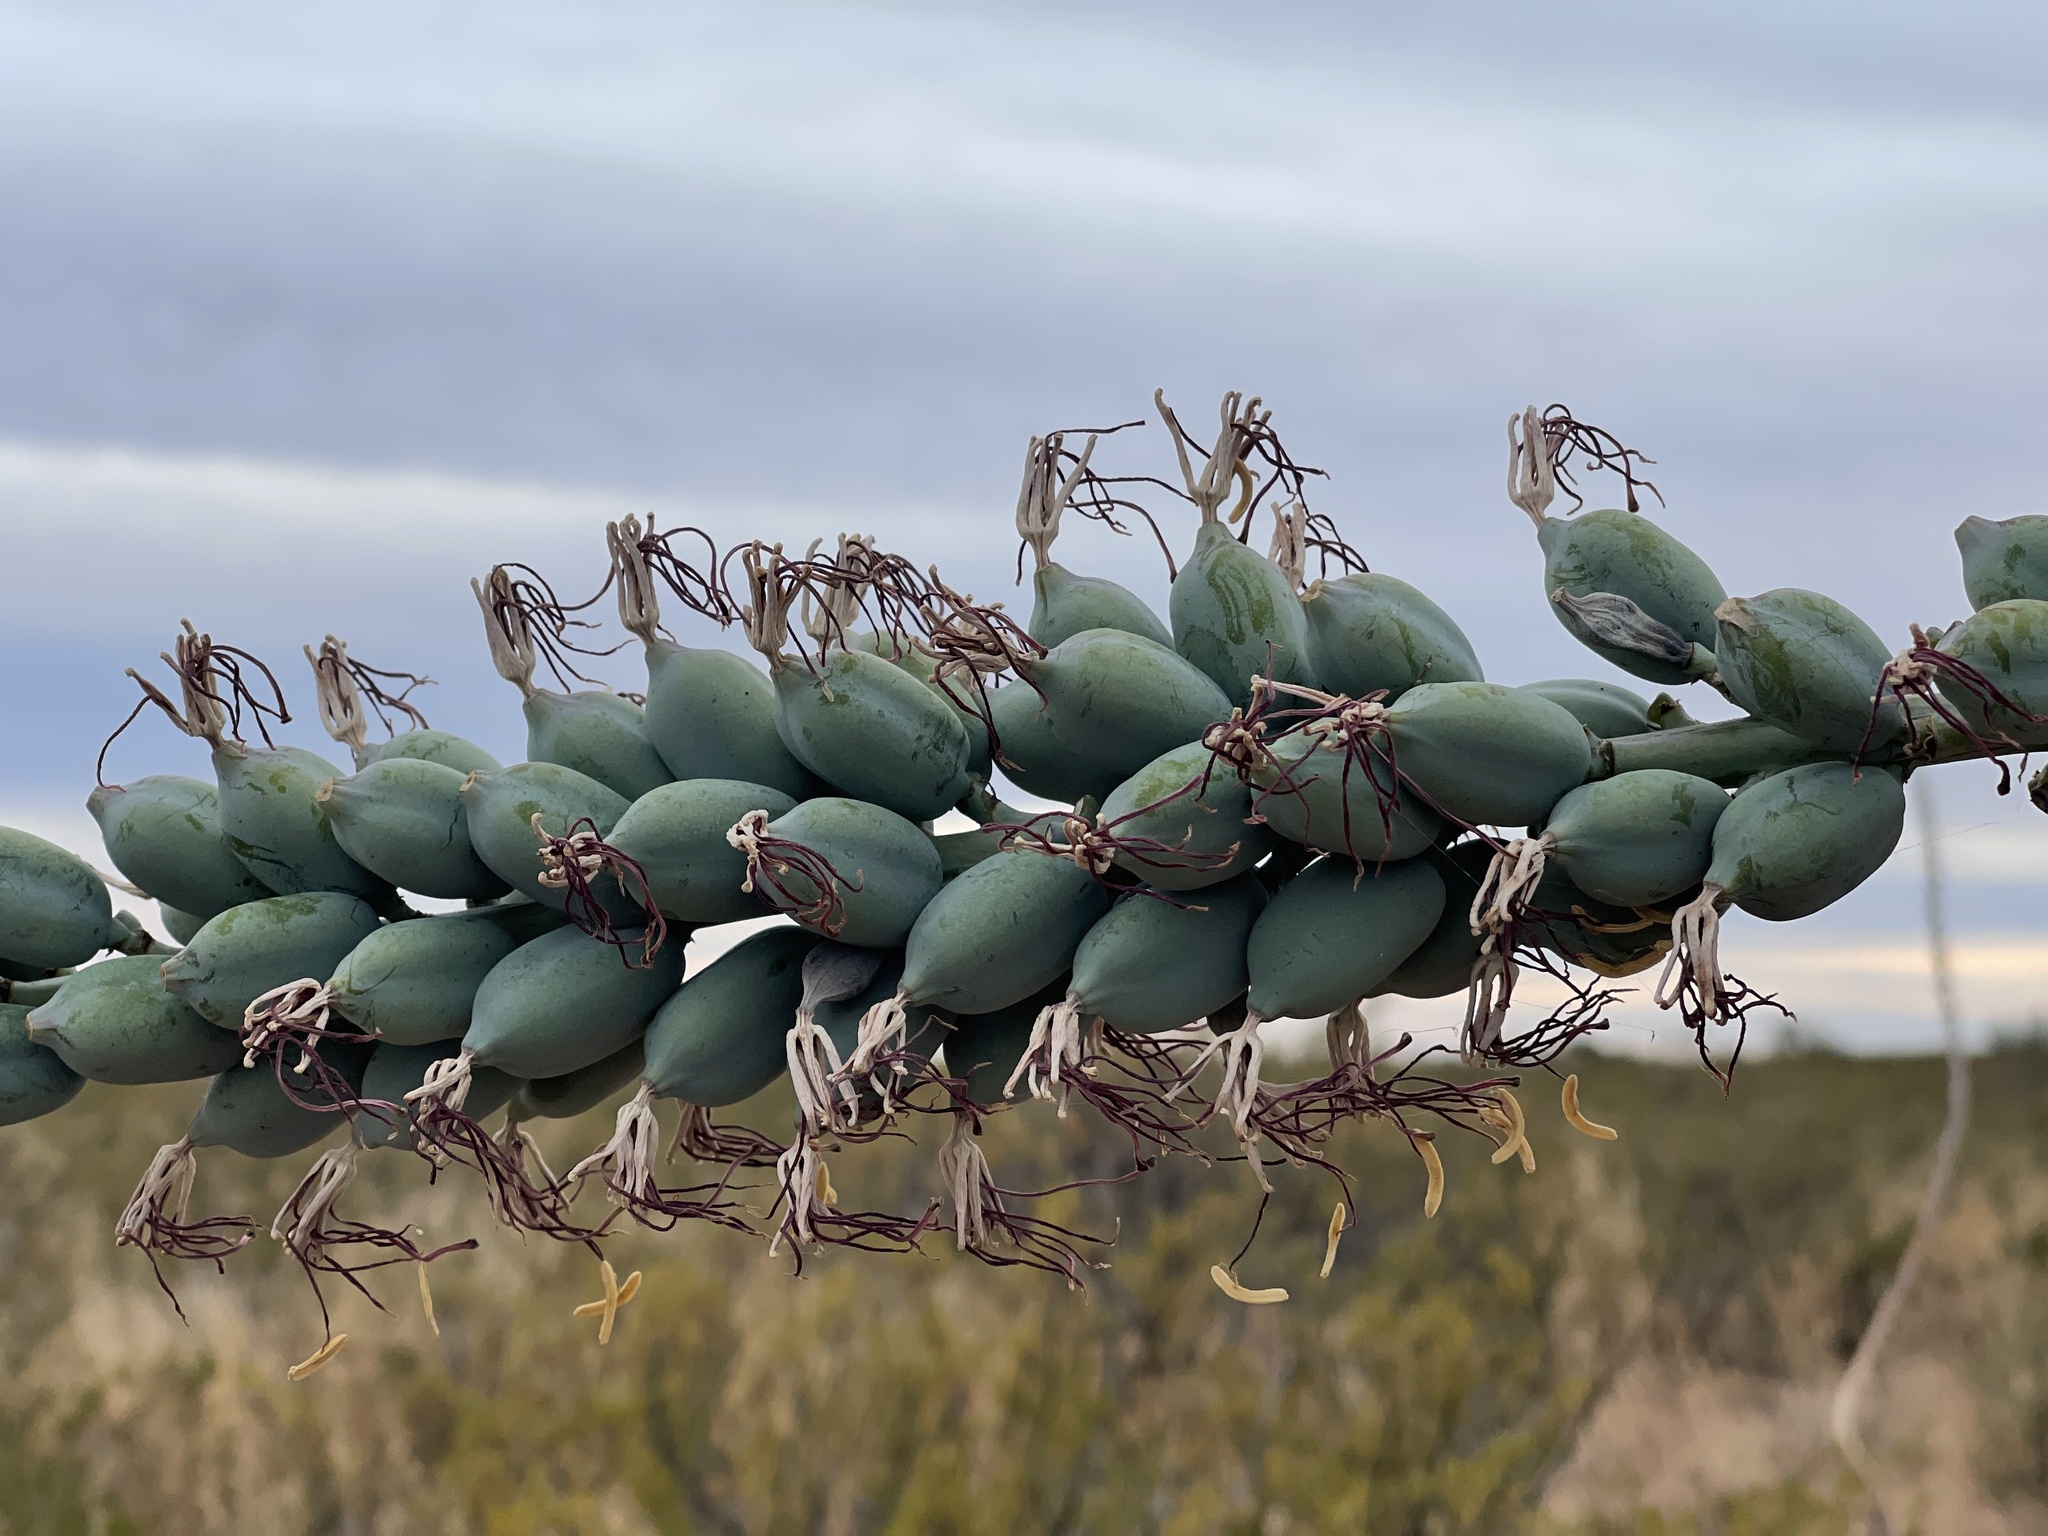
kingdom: Plantae
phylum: Tracheophyta
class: Liliopsida
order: Asparagales
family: Asparagaceae
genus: Agave
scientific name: Agave lechuguilla
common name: Lecheguilla agave
